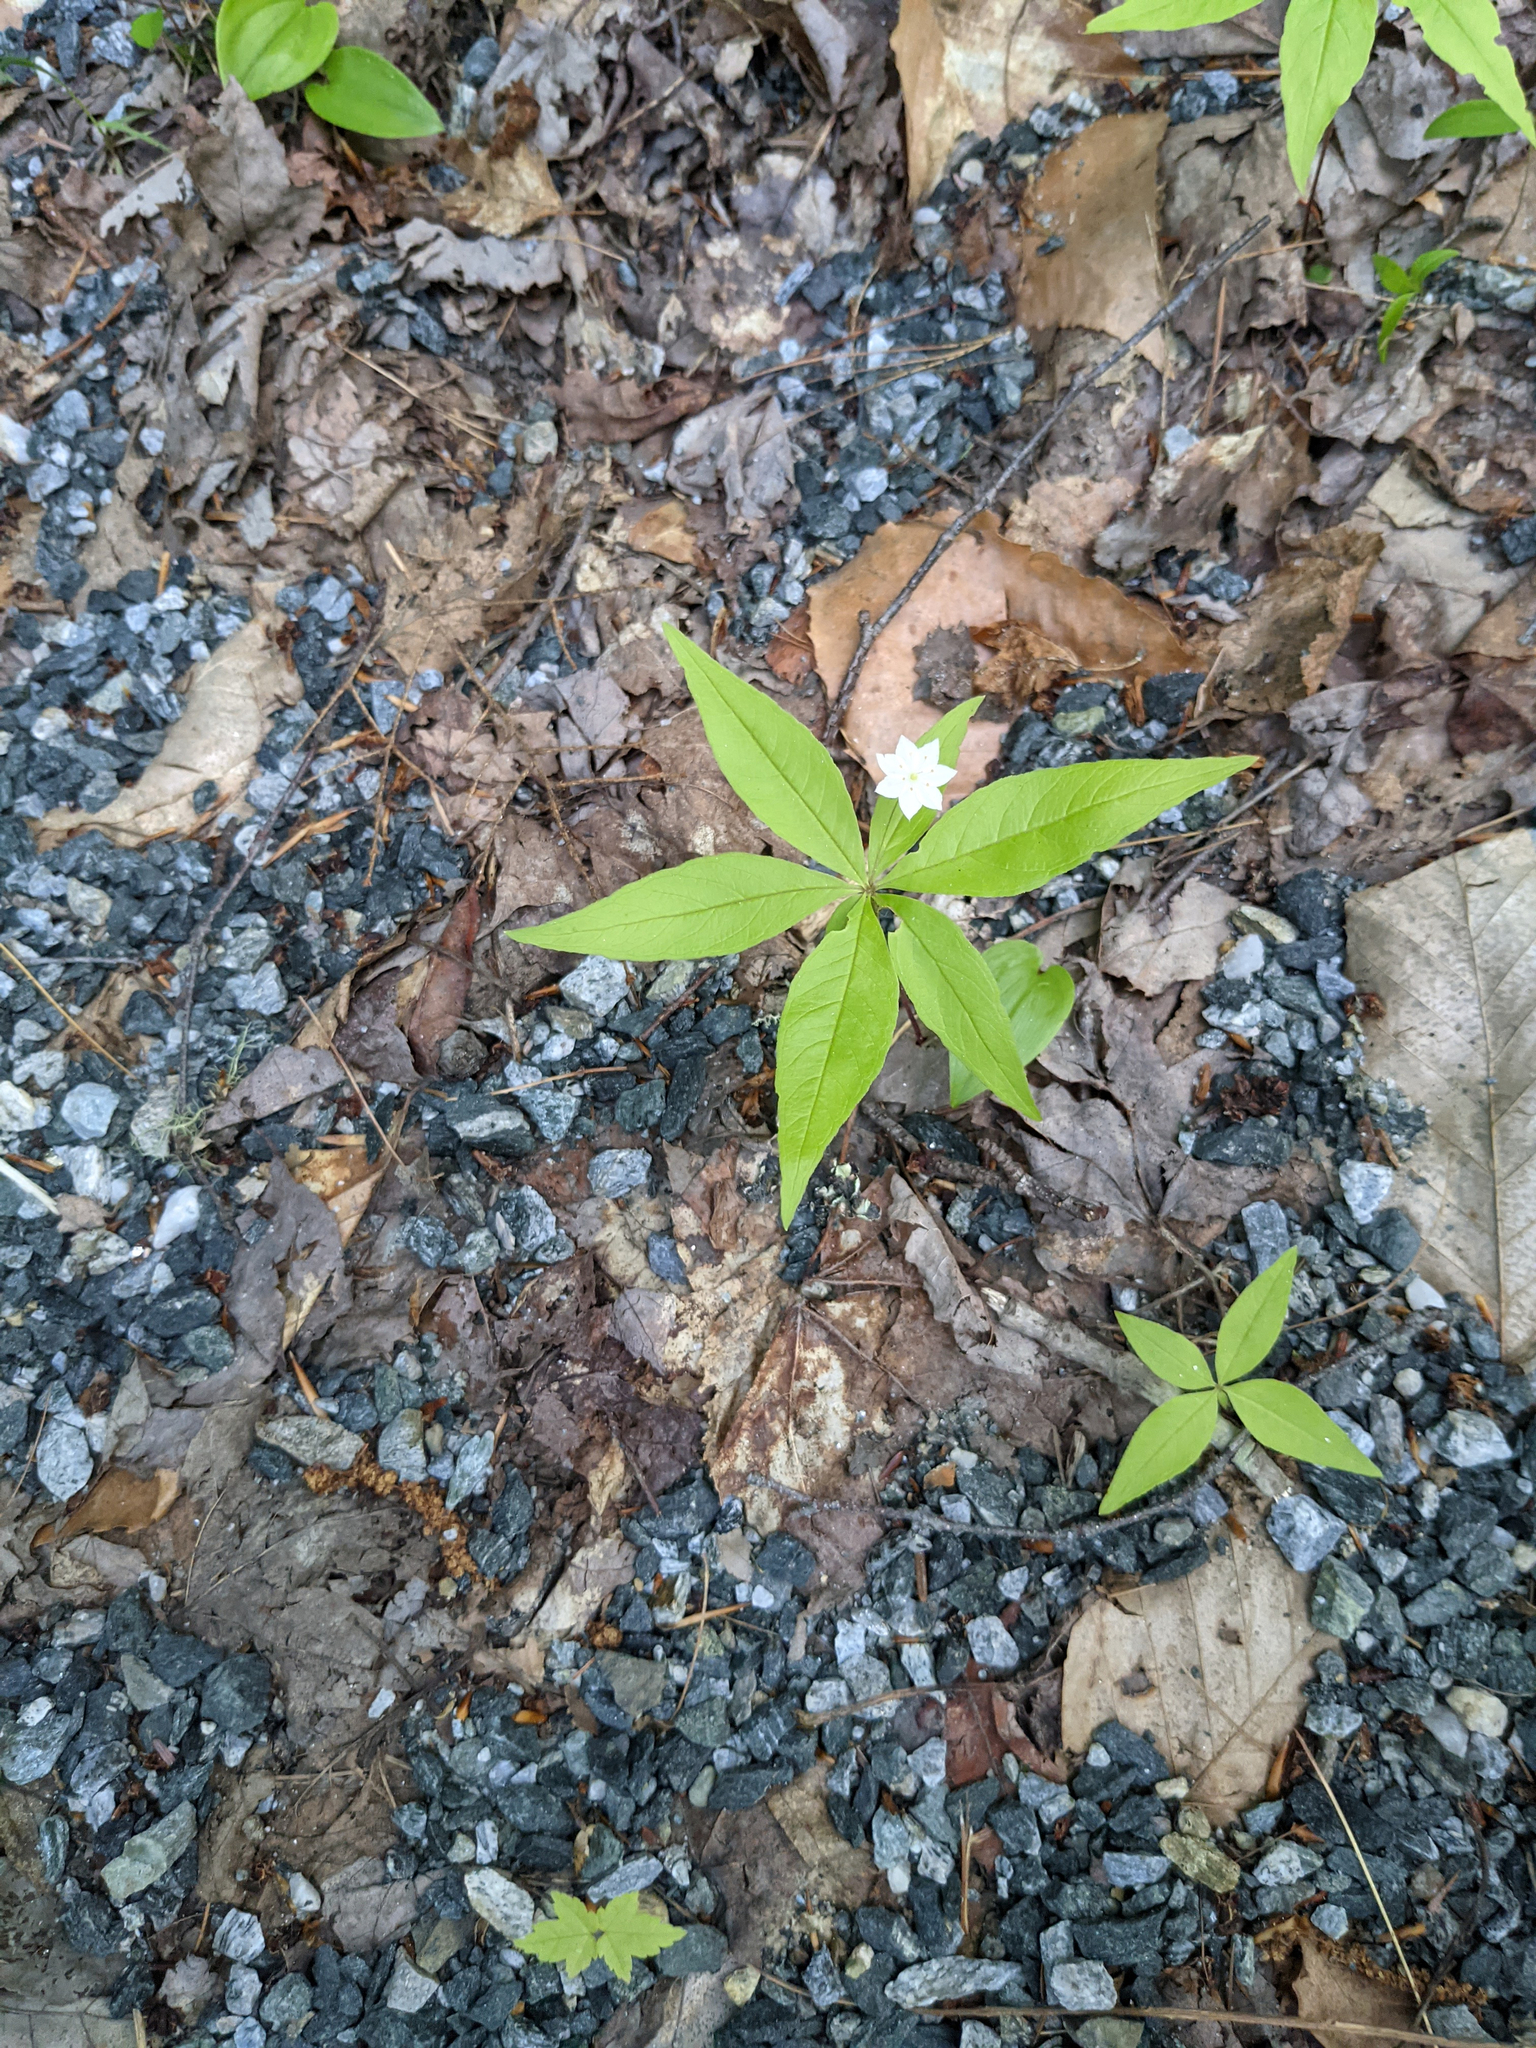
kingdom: Plantae
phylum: Tracheophyta
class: Magnoliopsida
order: Ericales
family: Primulaceae
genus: Lysimachia
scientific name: Lysimachia borealis
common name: American starflower
